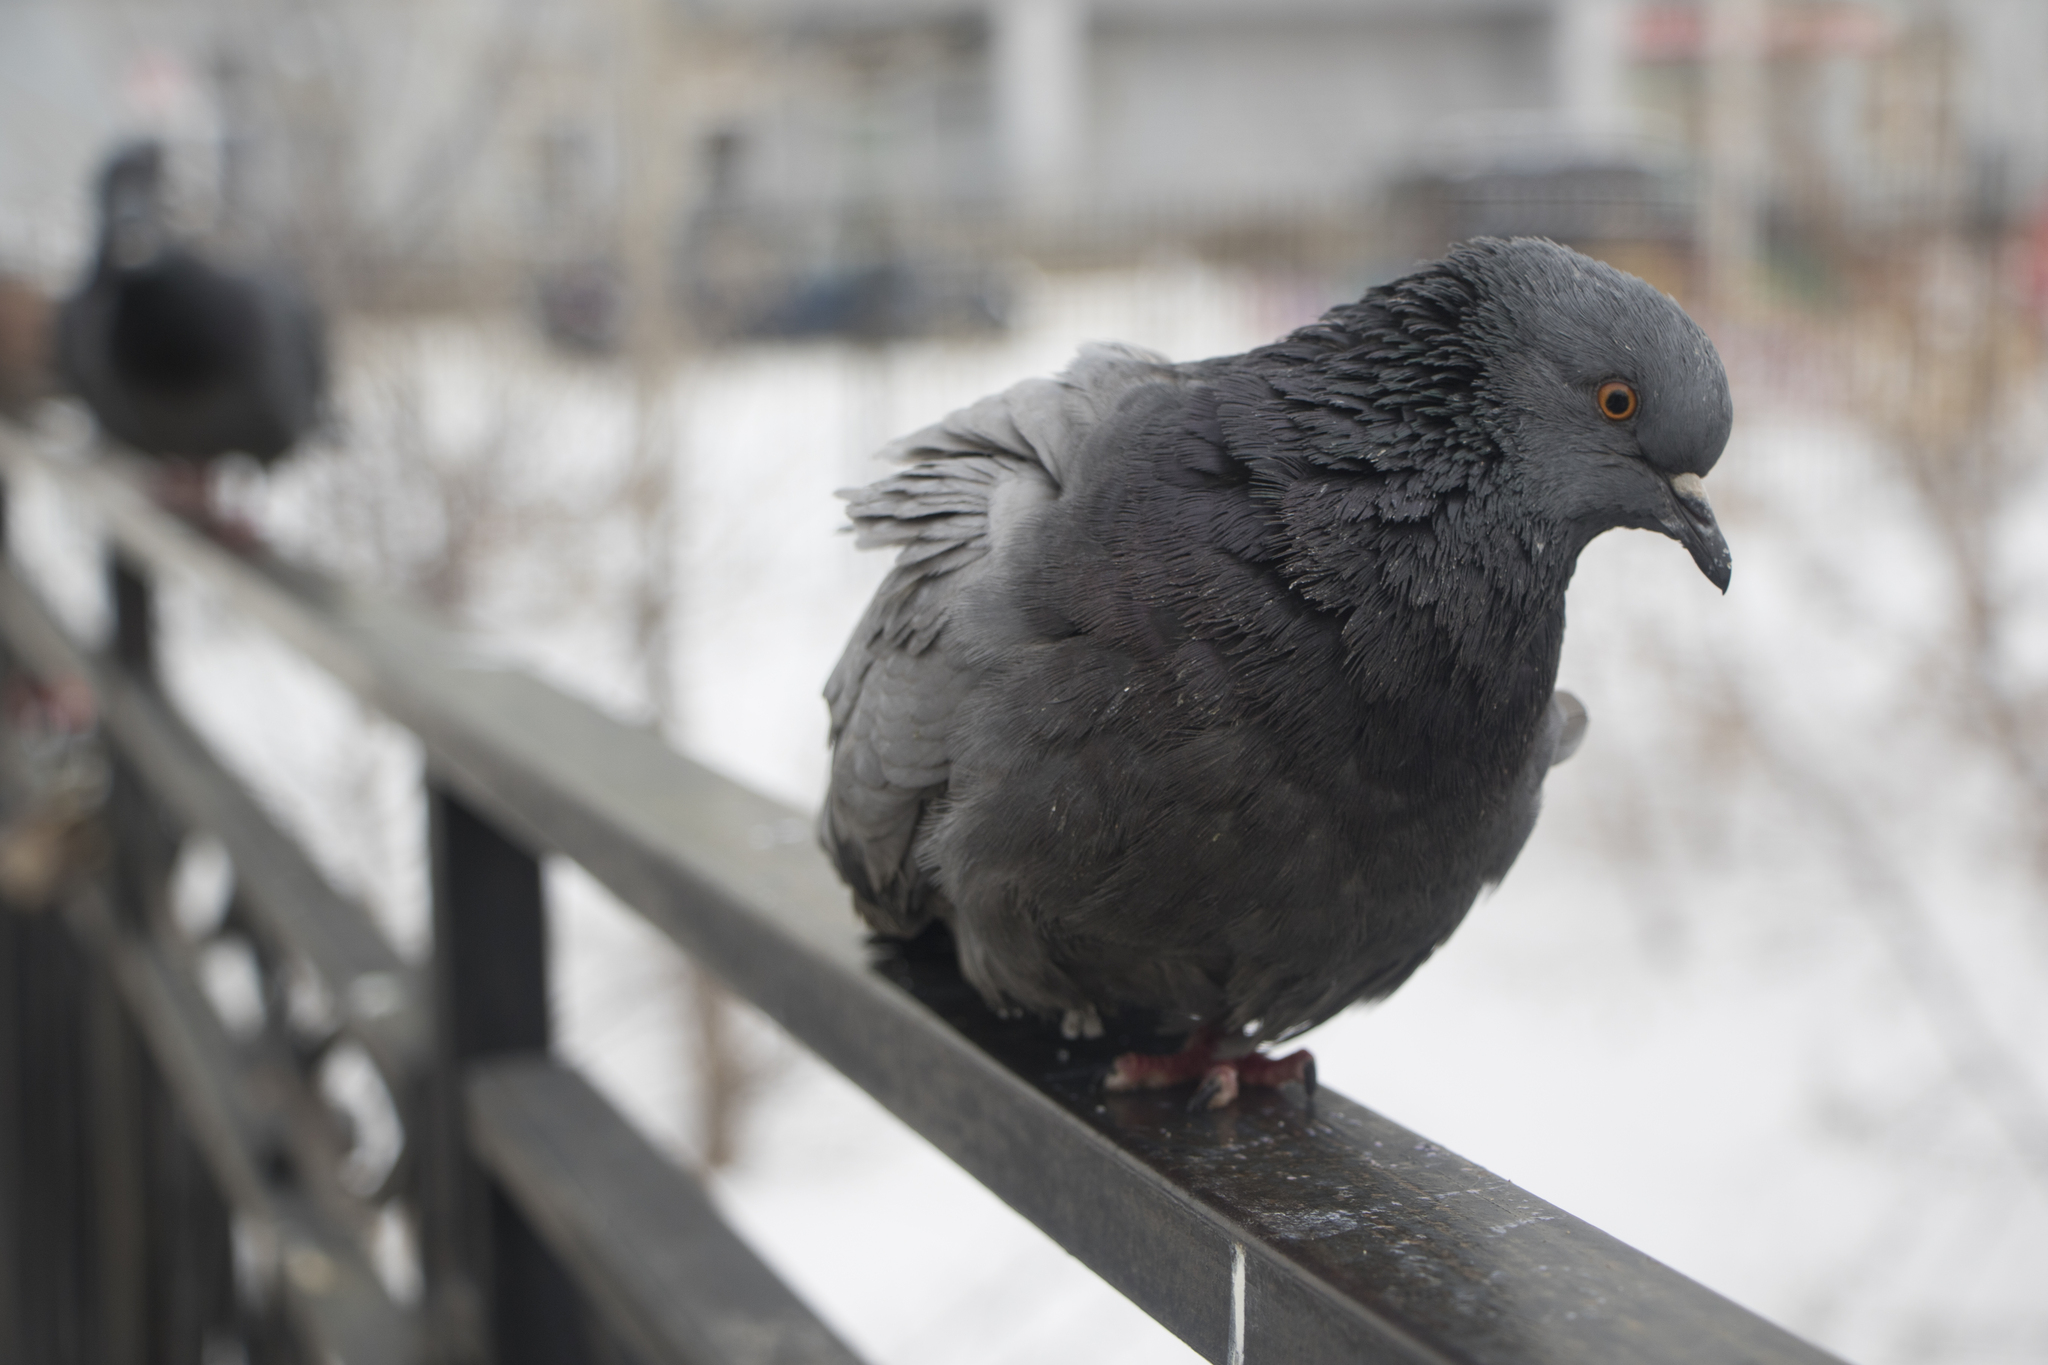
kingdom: Animalia
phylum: Chordata
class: Aves
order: Columbiformes
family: Columbidae
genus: Columba
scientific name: Columba livia
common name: Rock pigeon
